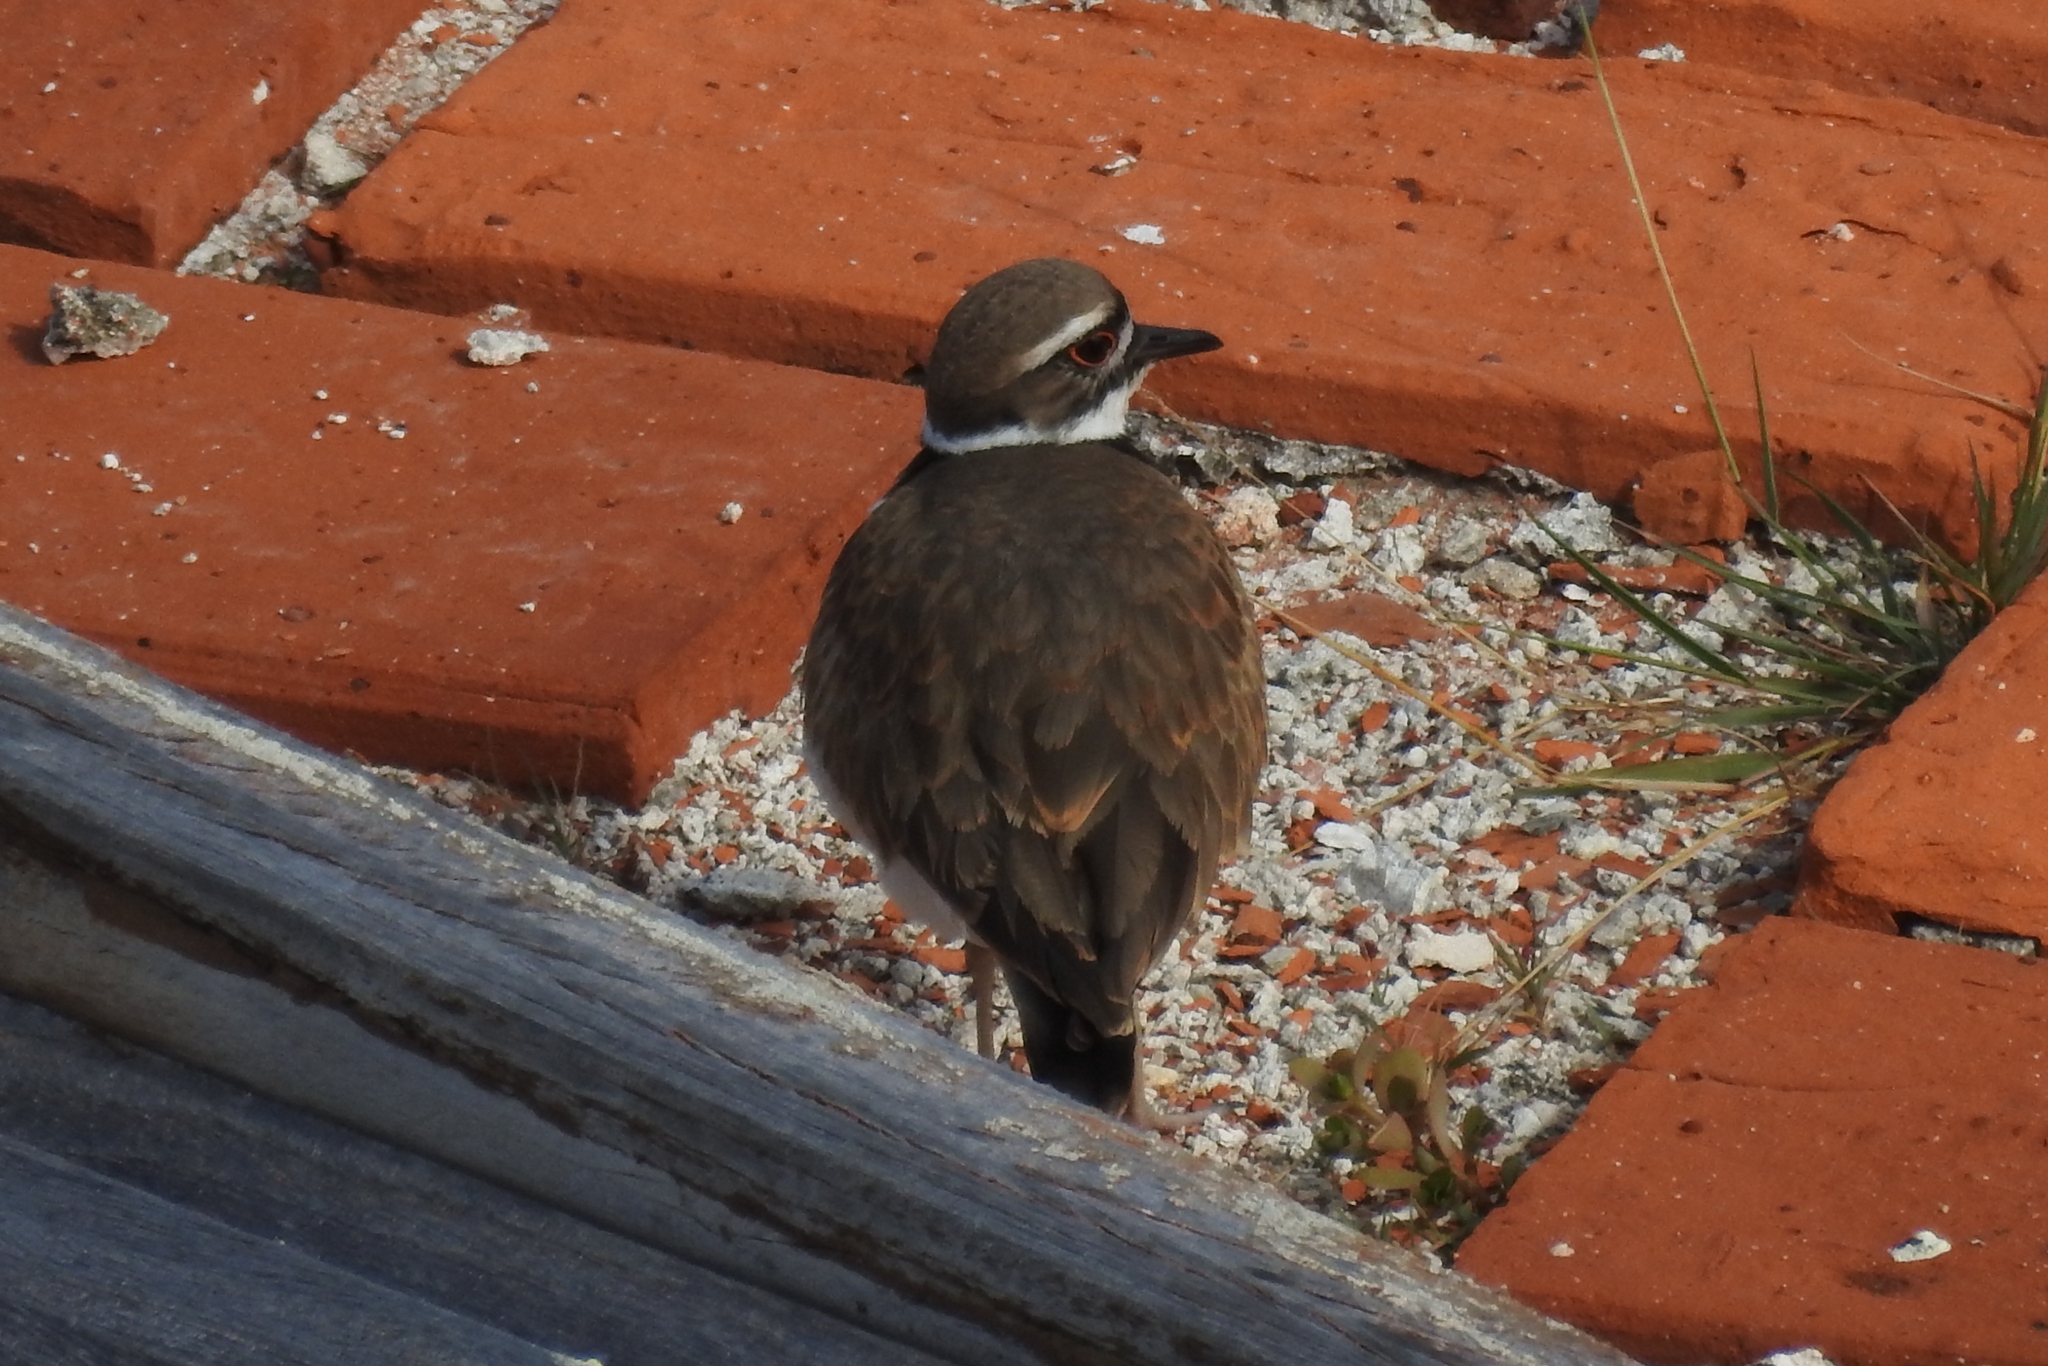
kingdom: Animalia
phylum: Chordata
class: Aves
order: Charadriiformes
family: Charadriidae
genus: Charadrius
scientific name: Charadrius vociferus
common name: Killdeer
